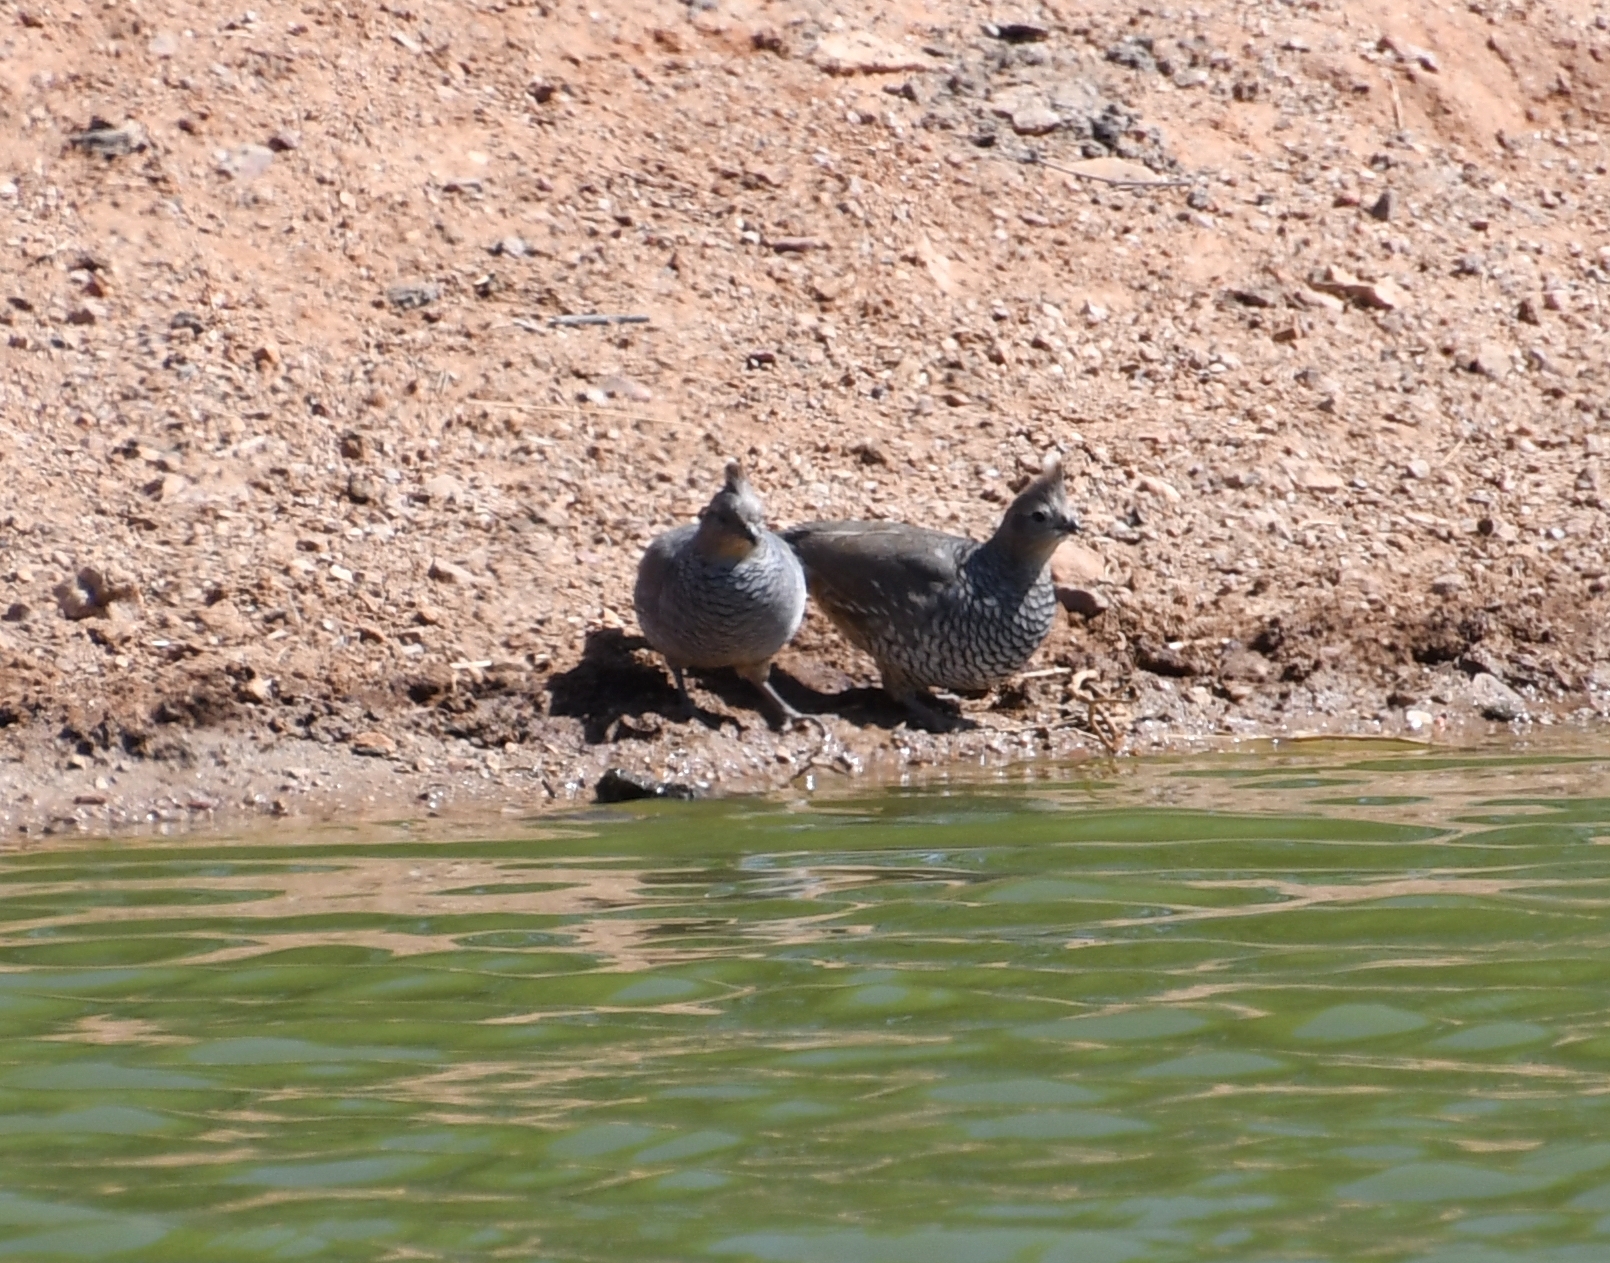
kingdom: Animalia
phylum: Chordata
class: Aves
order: Galliformes
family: Odontophoridae
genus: Callipepla
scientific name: Callipepla squamata
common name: Scaled quail
